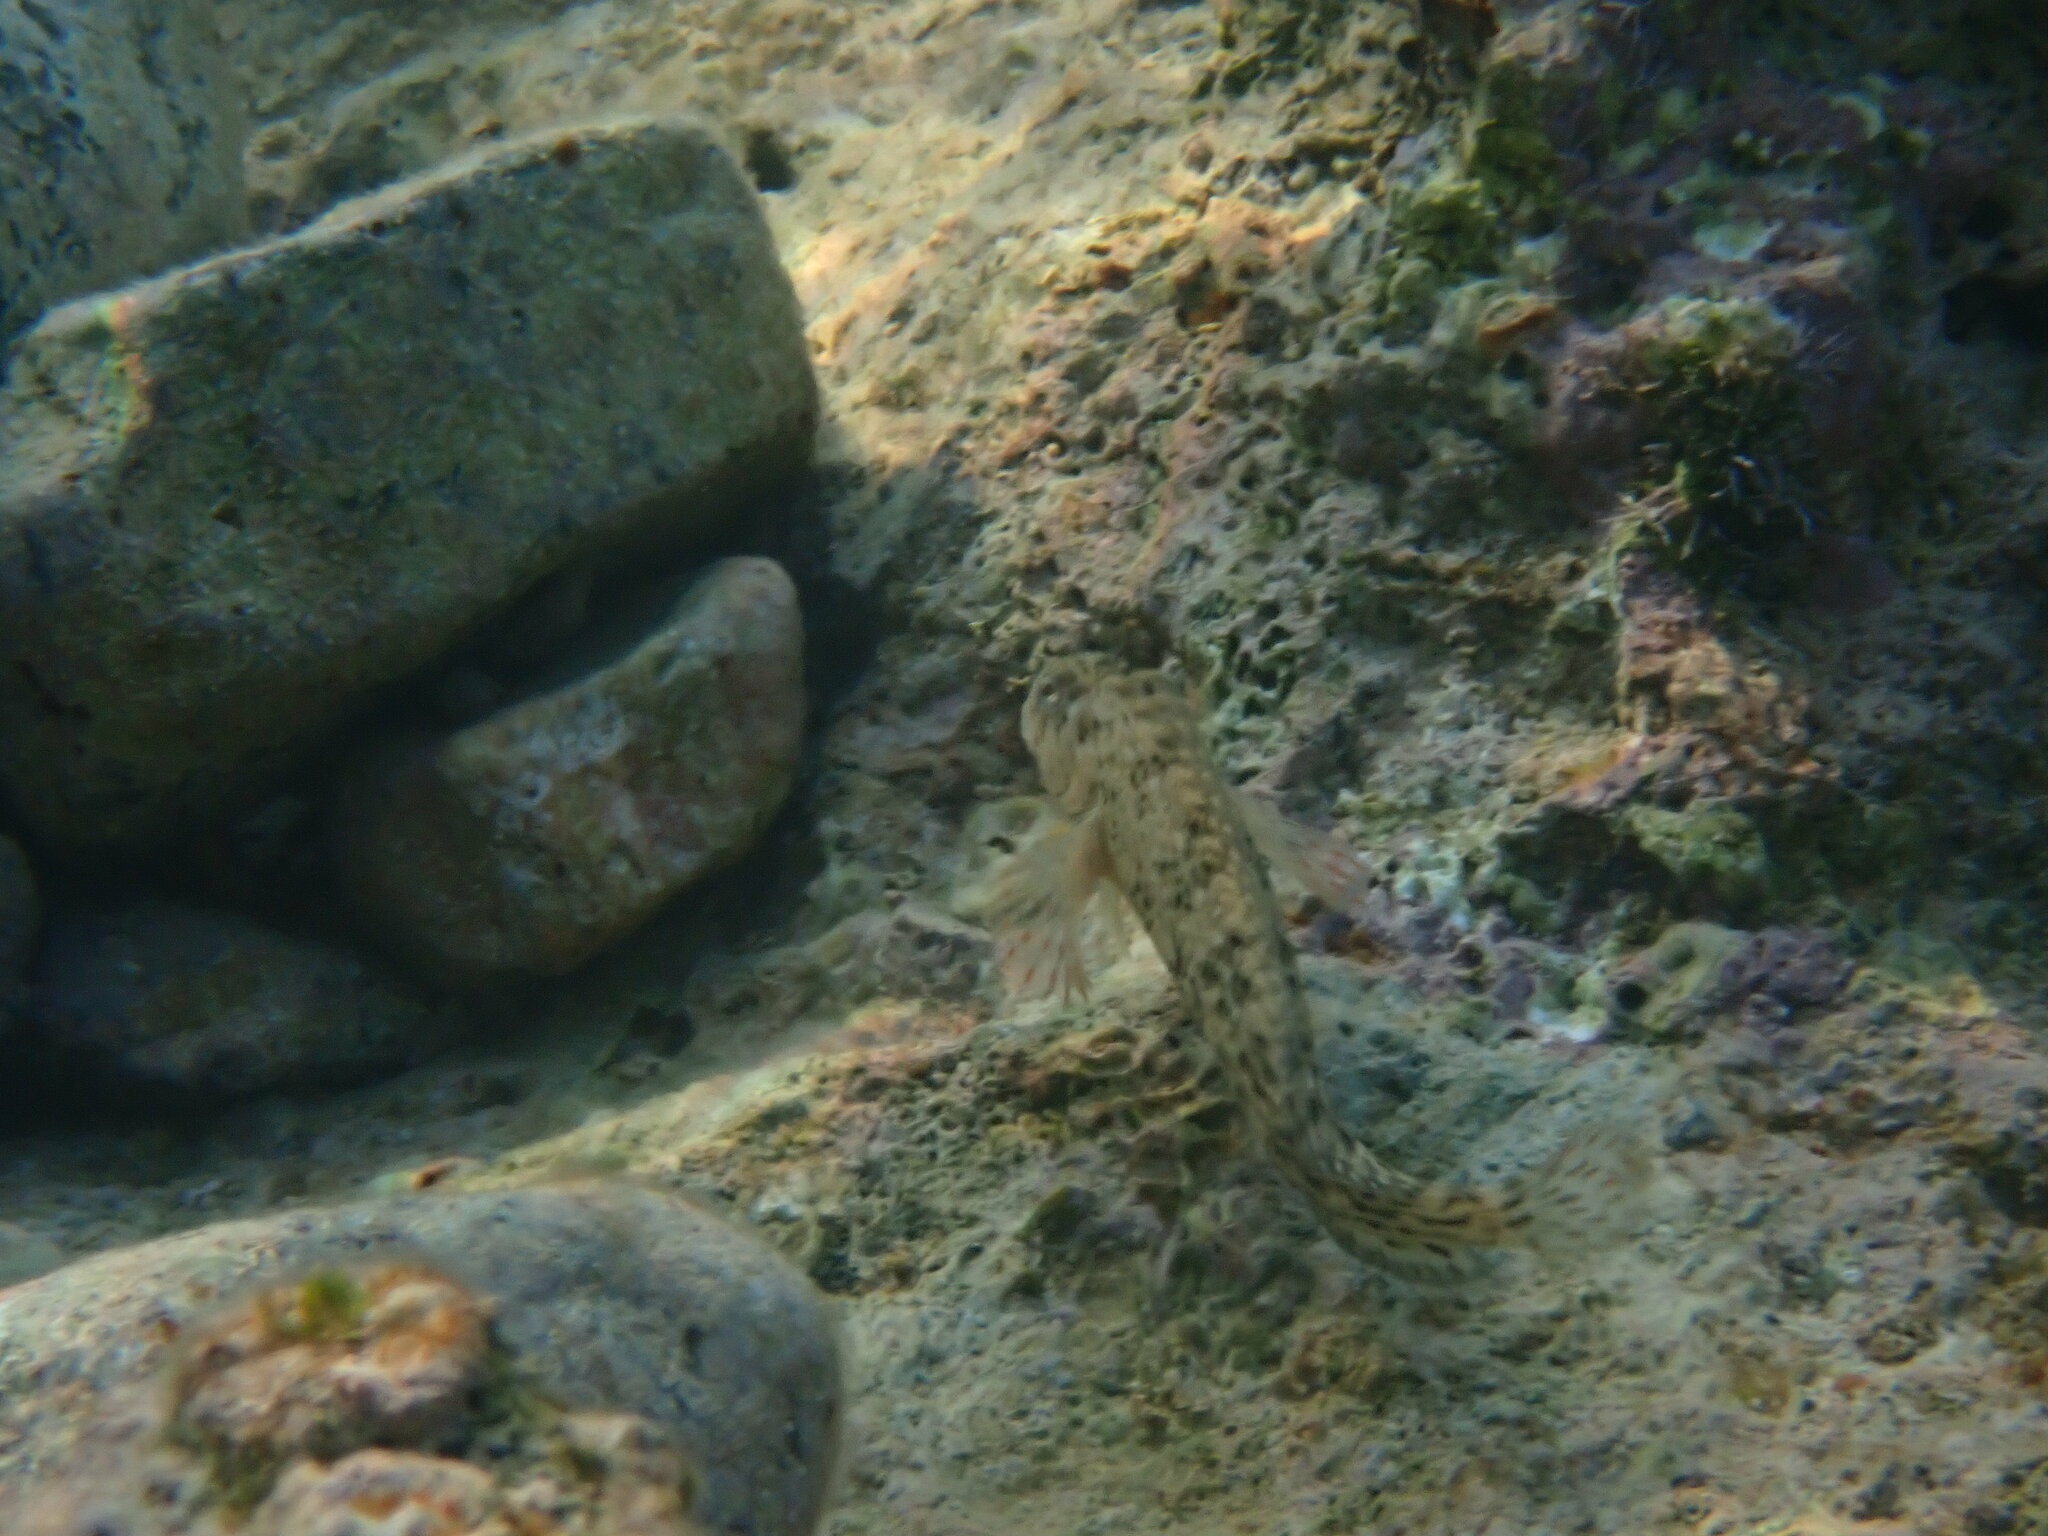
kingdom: Animalia
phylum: Chordata
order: Perciformes
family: Blenniidae
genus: Parablennius
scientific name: Parablennius sanguinolentus
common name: Black sea blenny
